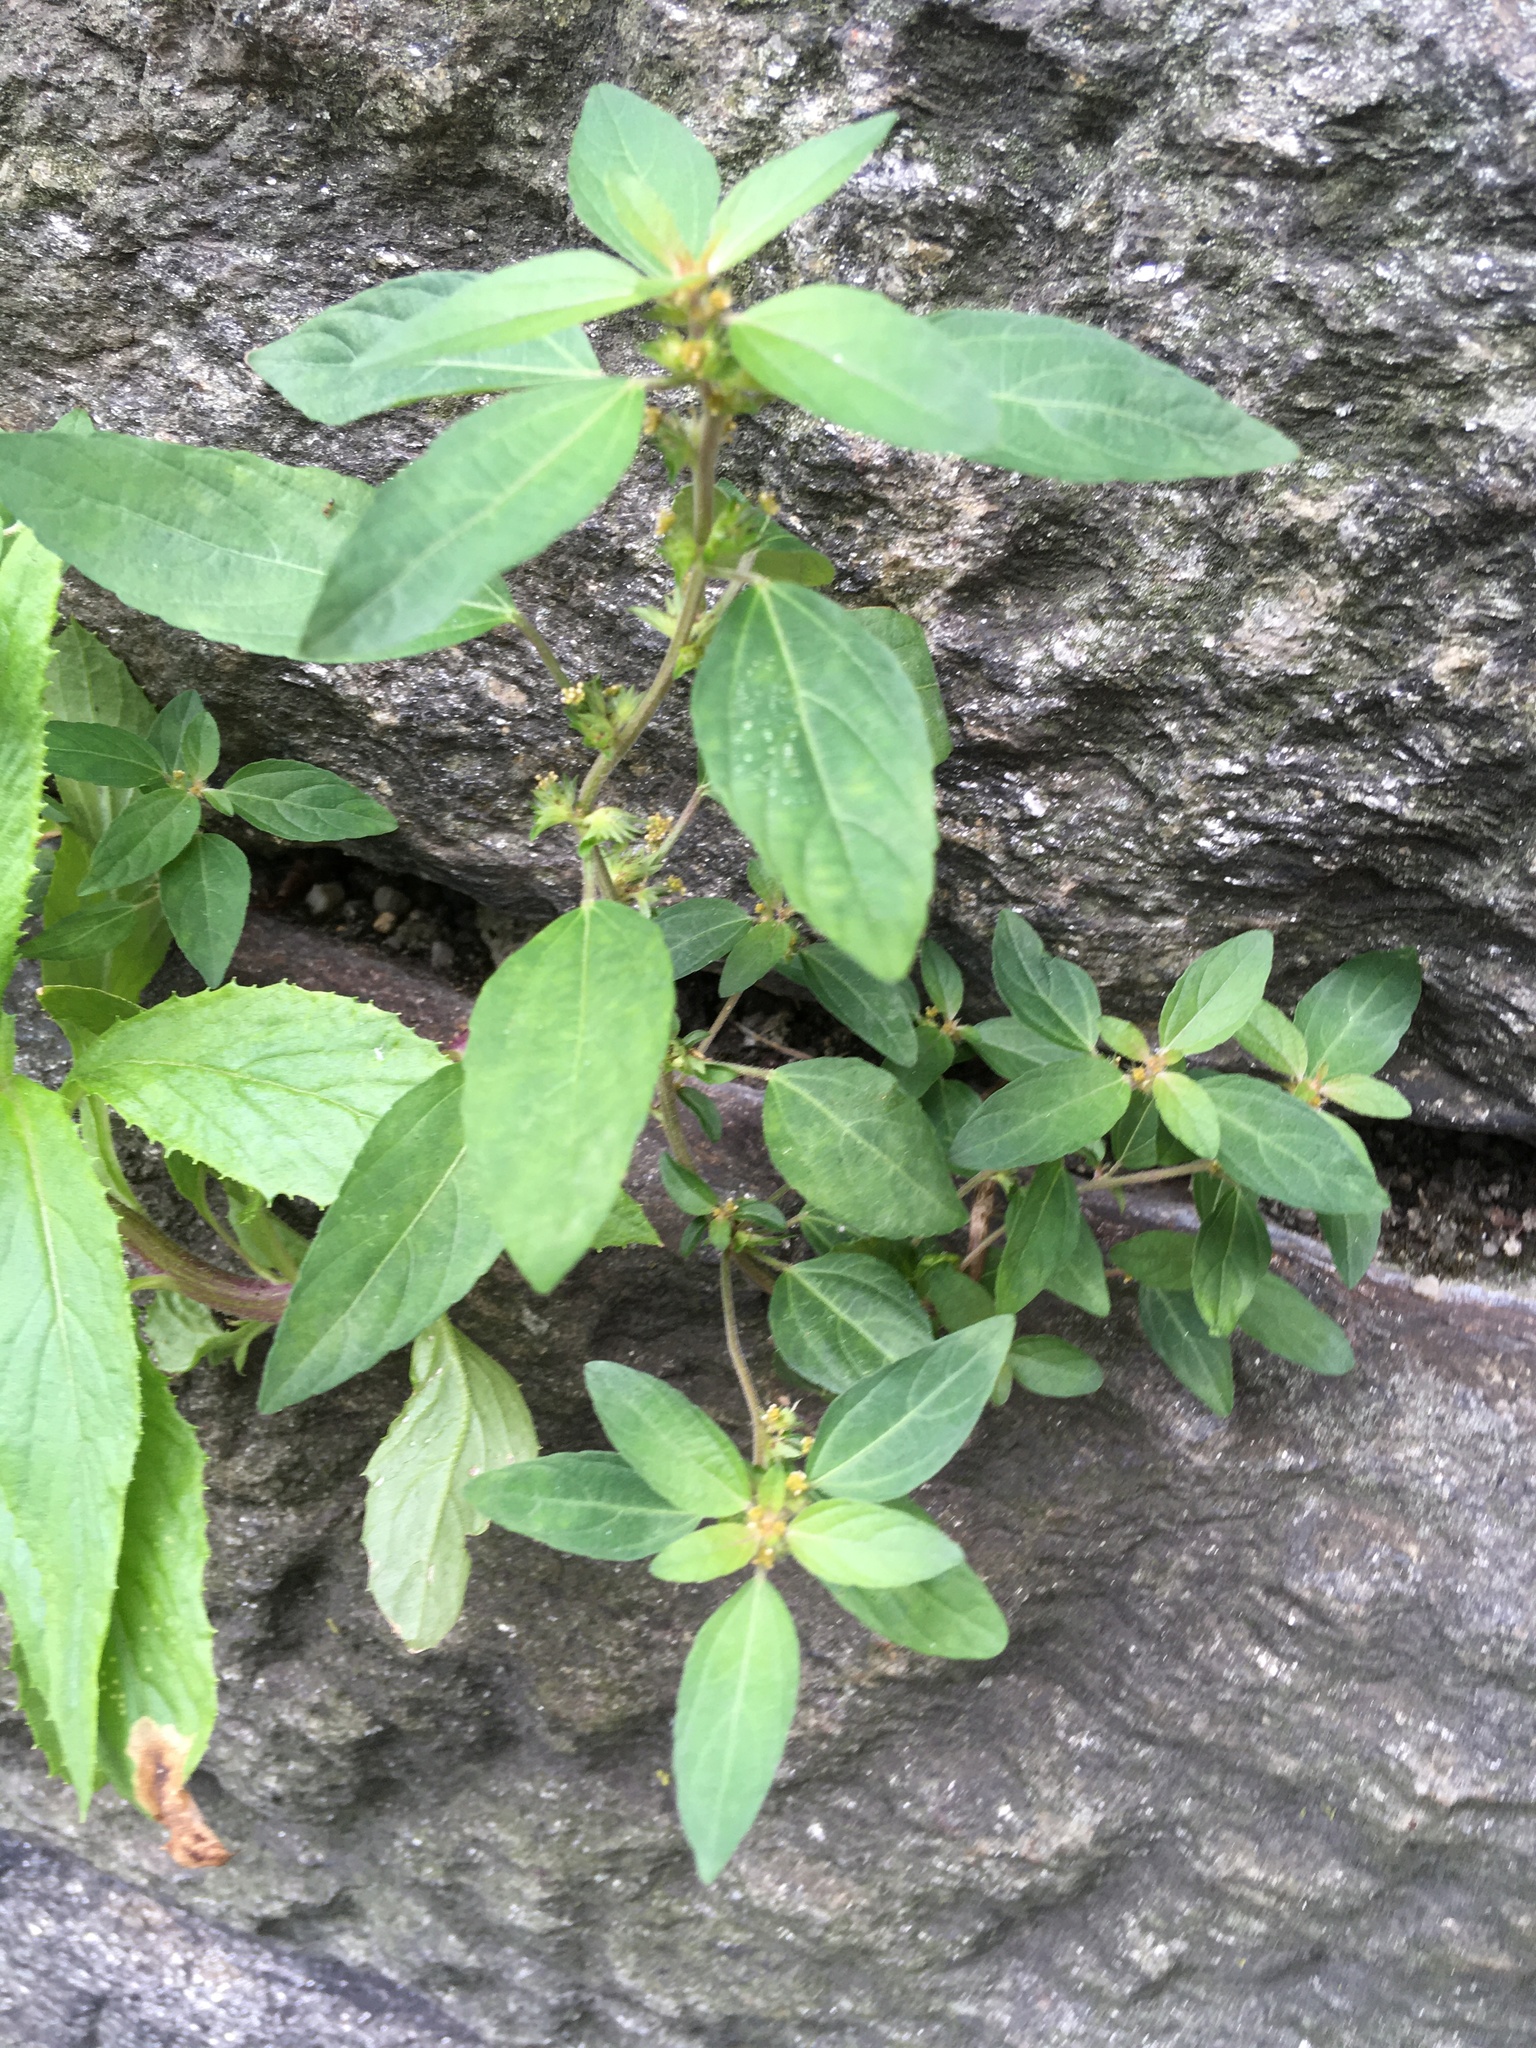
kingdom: Plantae
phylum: Tracheophyta
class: Magnoliopsida
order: Malpighiales
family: Euphorbiaceae
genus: Acalypha
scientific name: Acalypha rhomboidea
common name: Rhombic copperleaf
